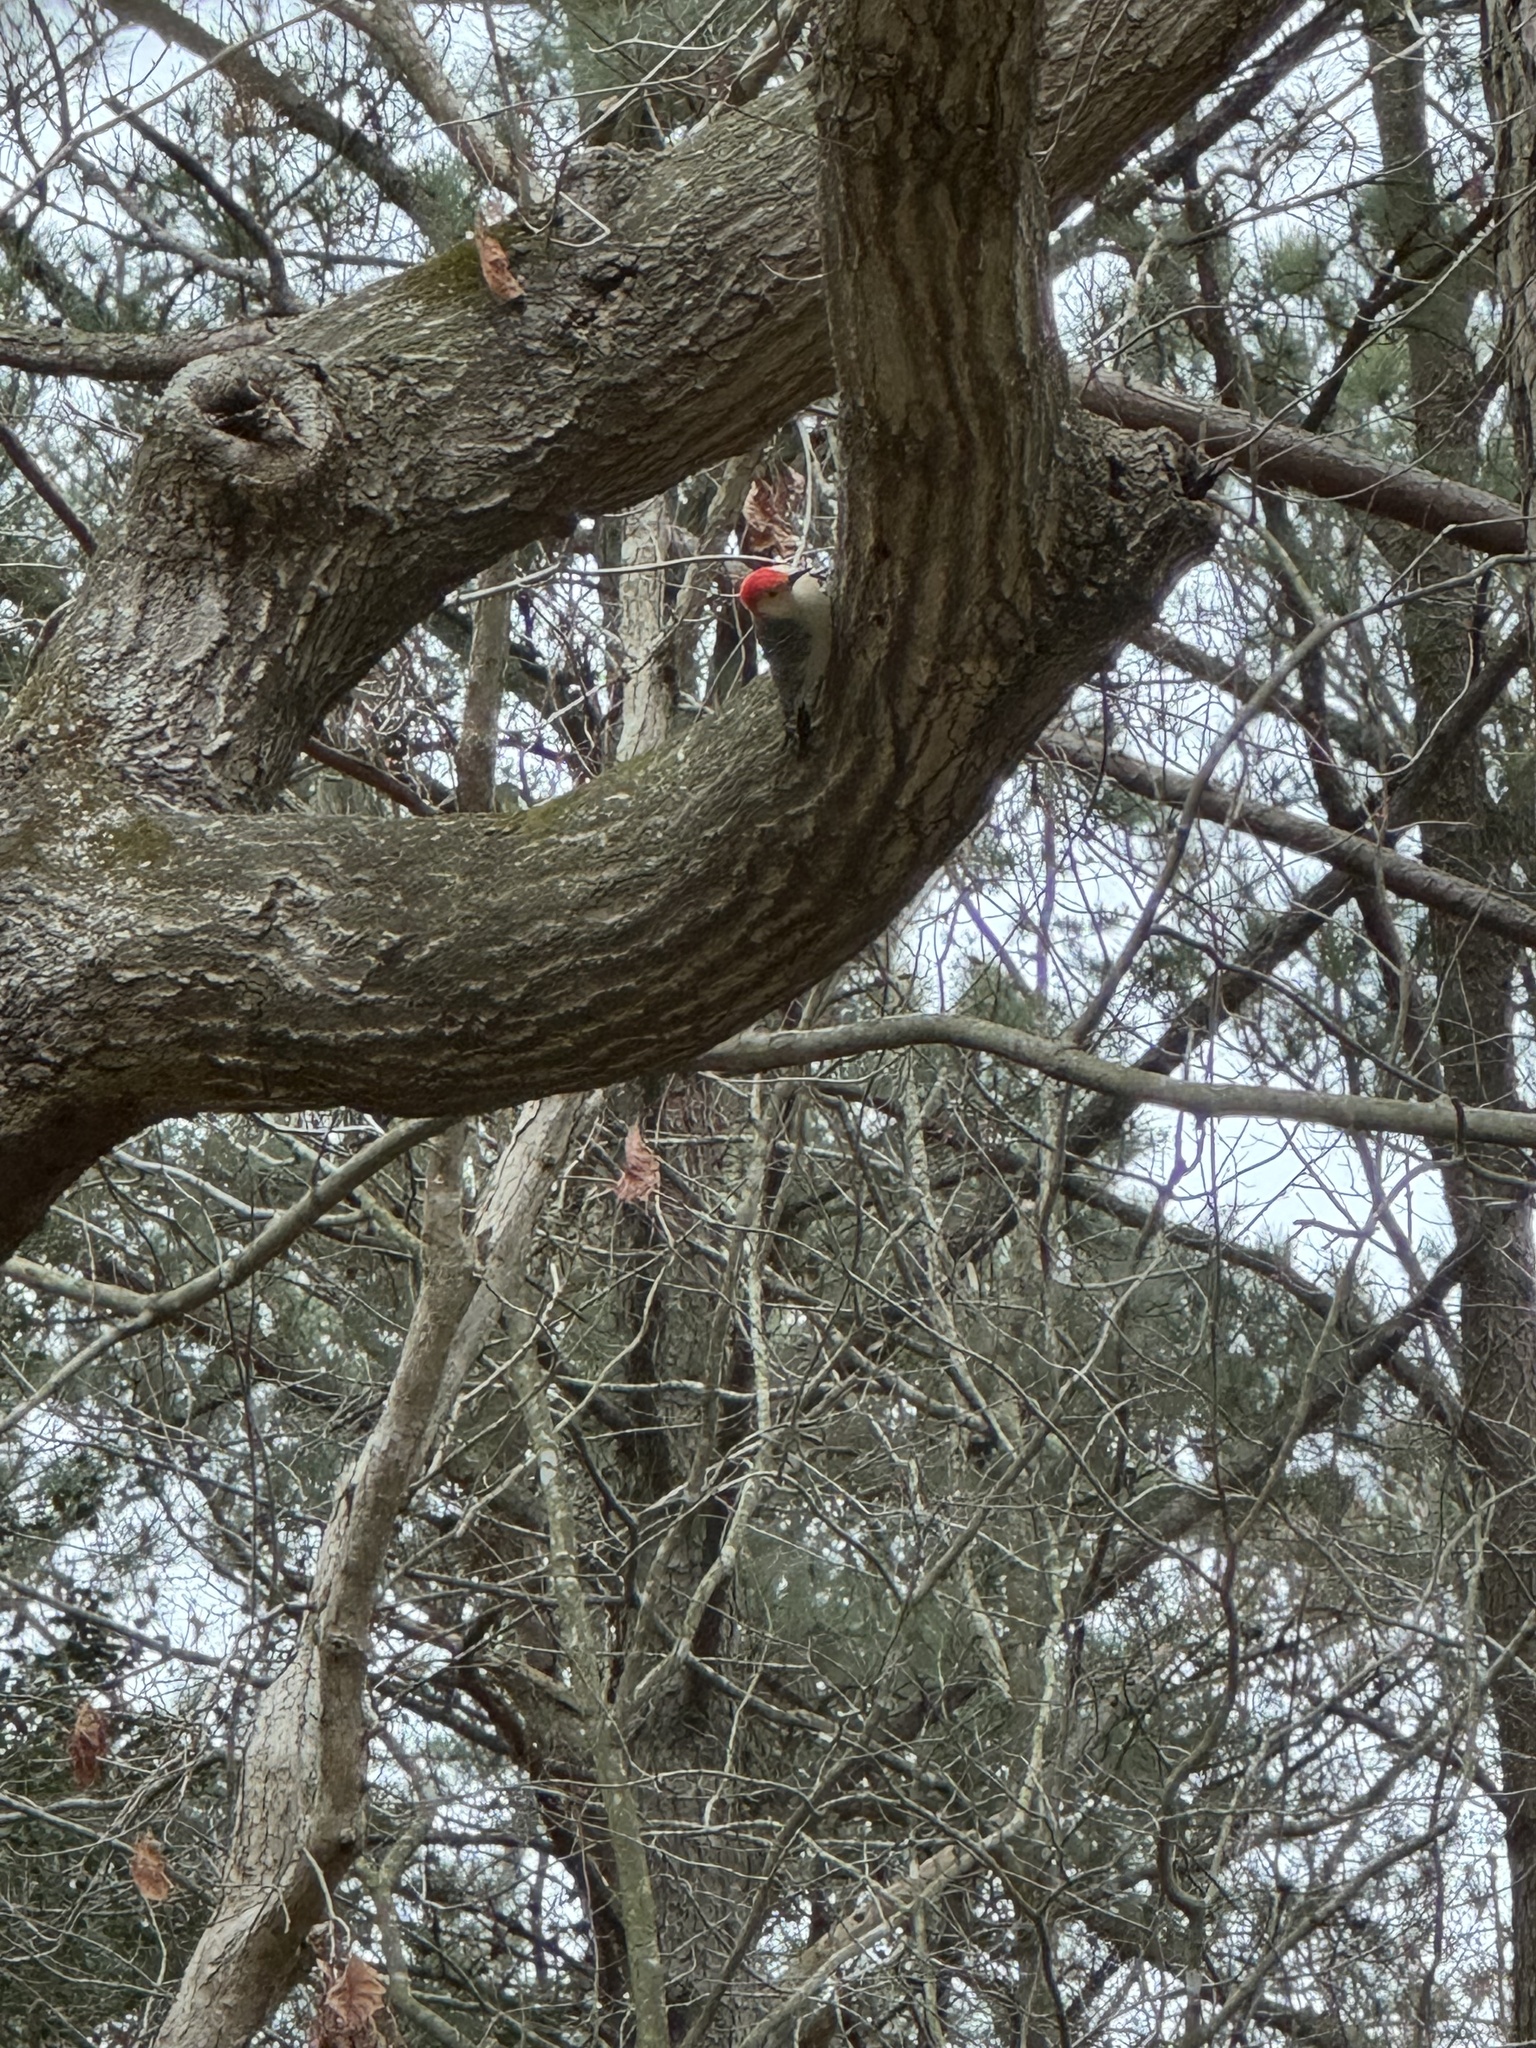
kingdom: Animalia
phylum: Chordata
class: Aves
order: Piciformes
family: Picidae
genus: Melanerpes
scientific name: Melanerpes carolinus
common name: Red-bellied woodpecker
